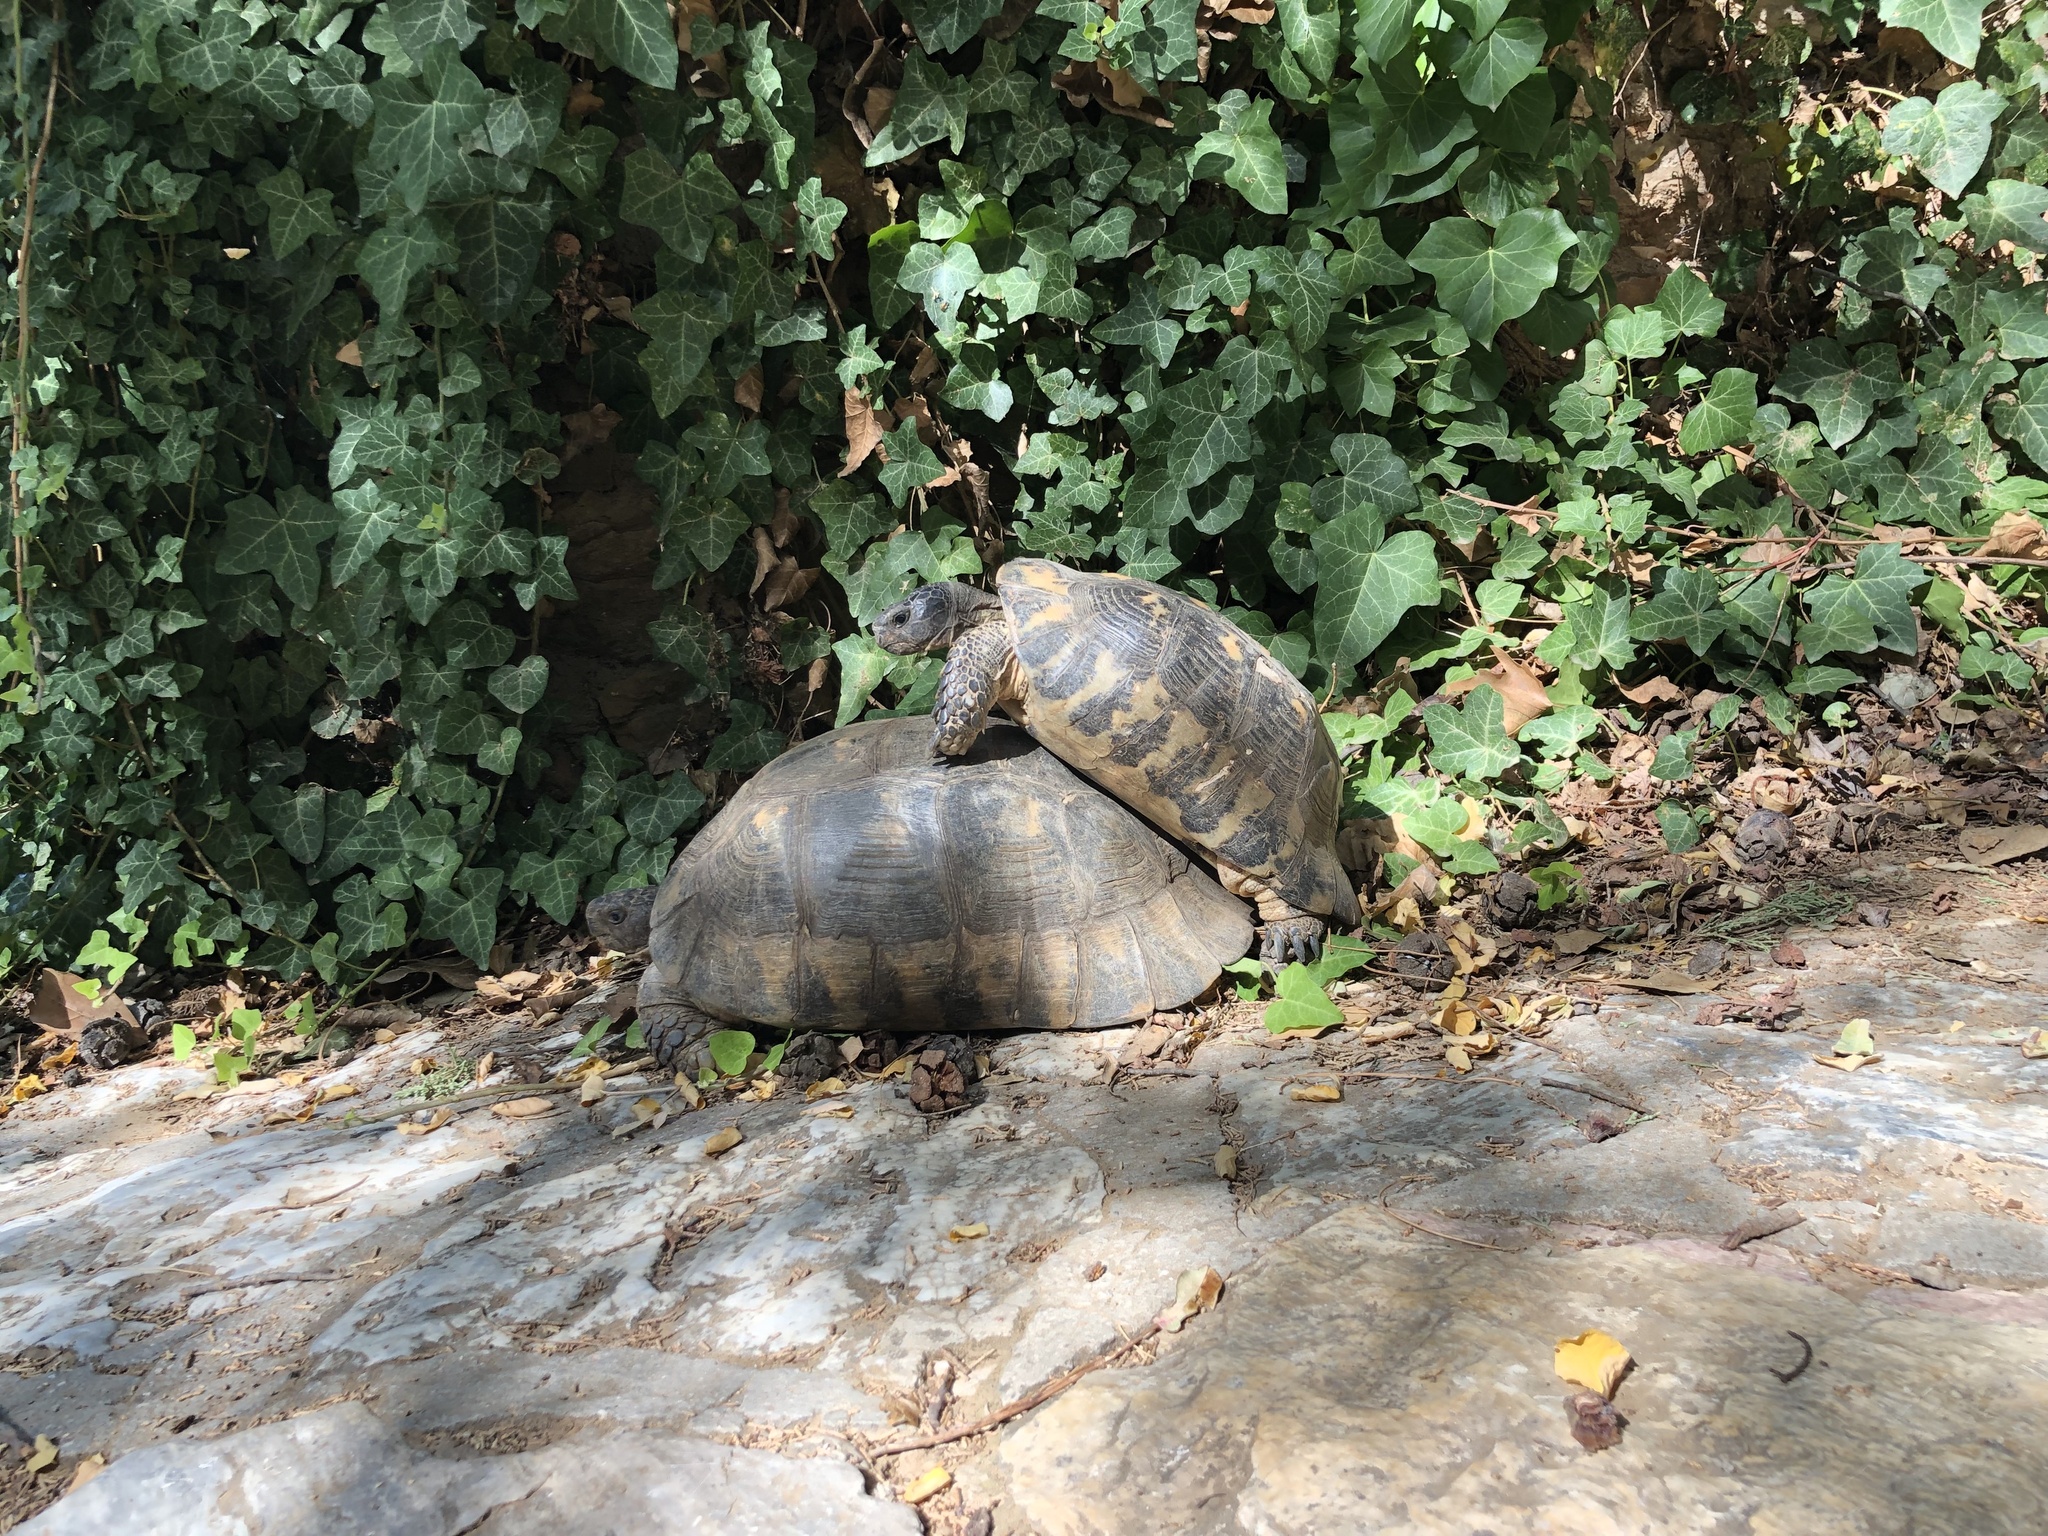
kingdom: Animalia
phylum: Chordata
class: Testudines
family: Testudinidae
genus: Testudo
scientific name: Testudo marginata
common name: Marginated tortoise
